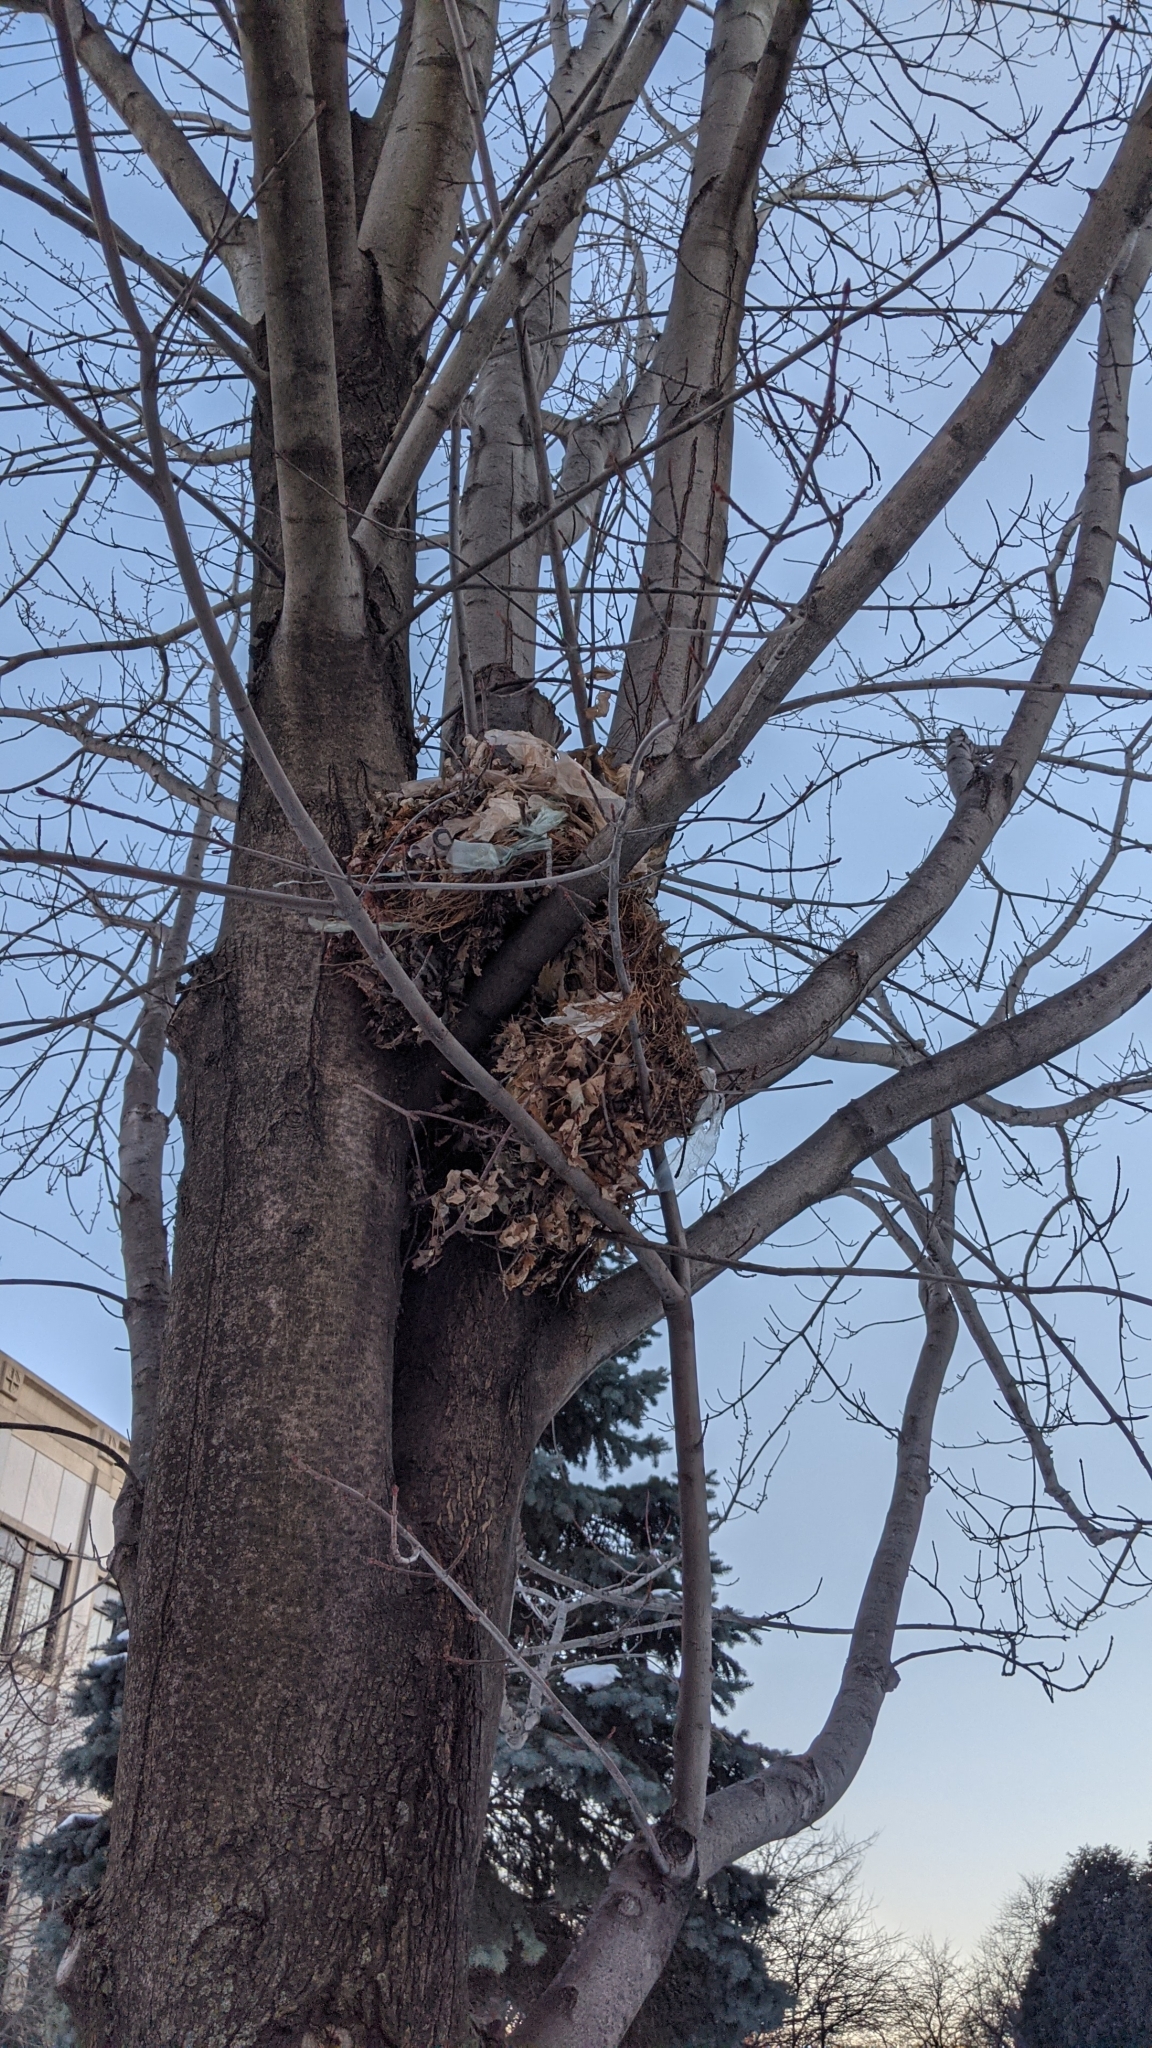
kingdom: Animalia
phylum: Chordata
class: Mammalia
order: Rodentia
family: Sciuridae
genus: Sciurus
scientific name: Sciurus carolinensis
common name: Eastern gray squirrel
